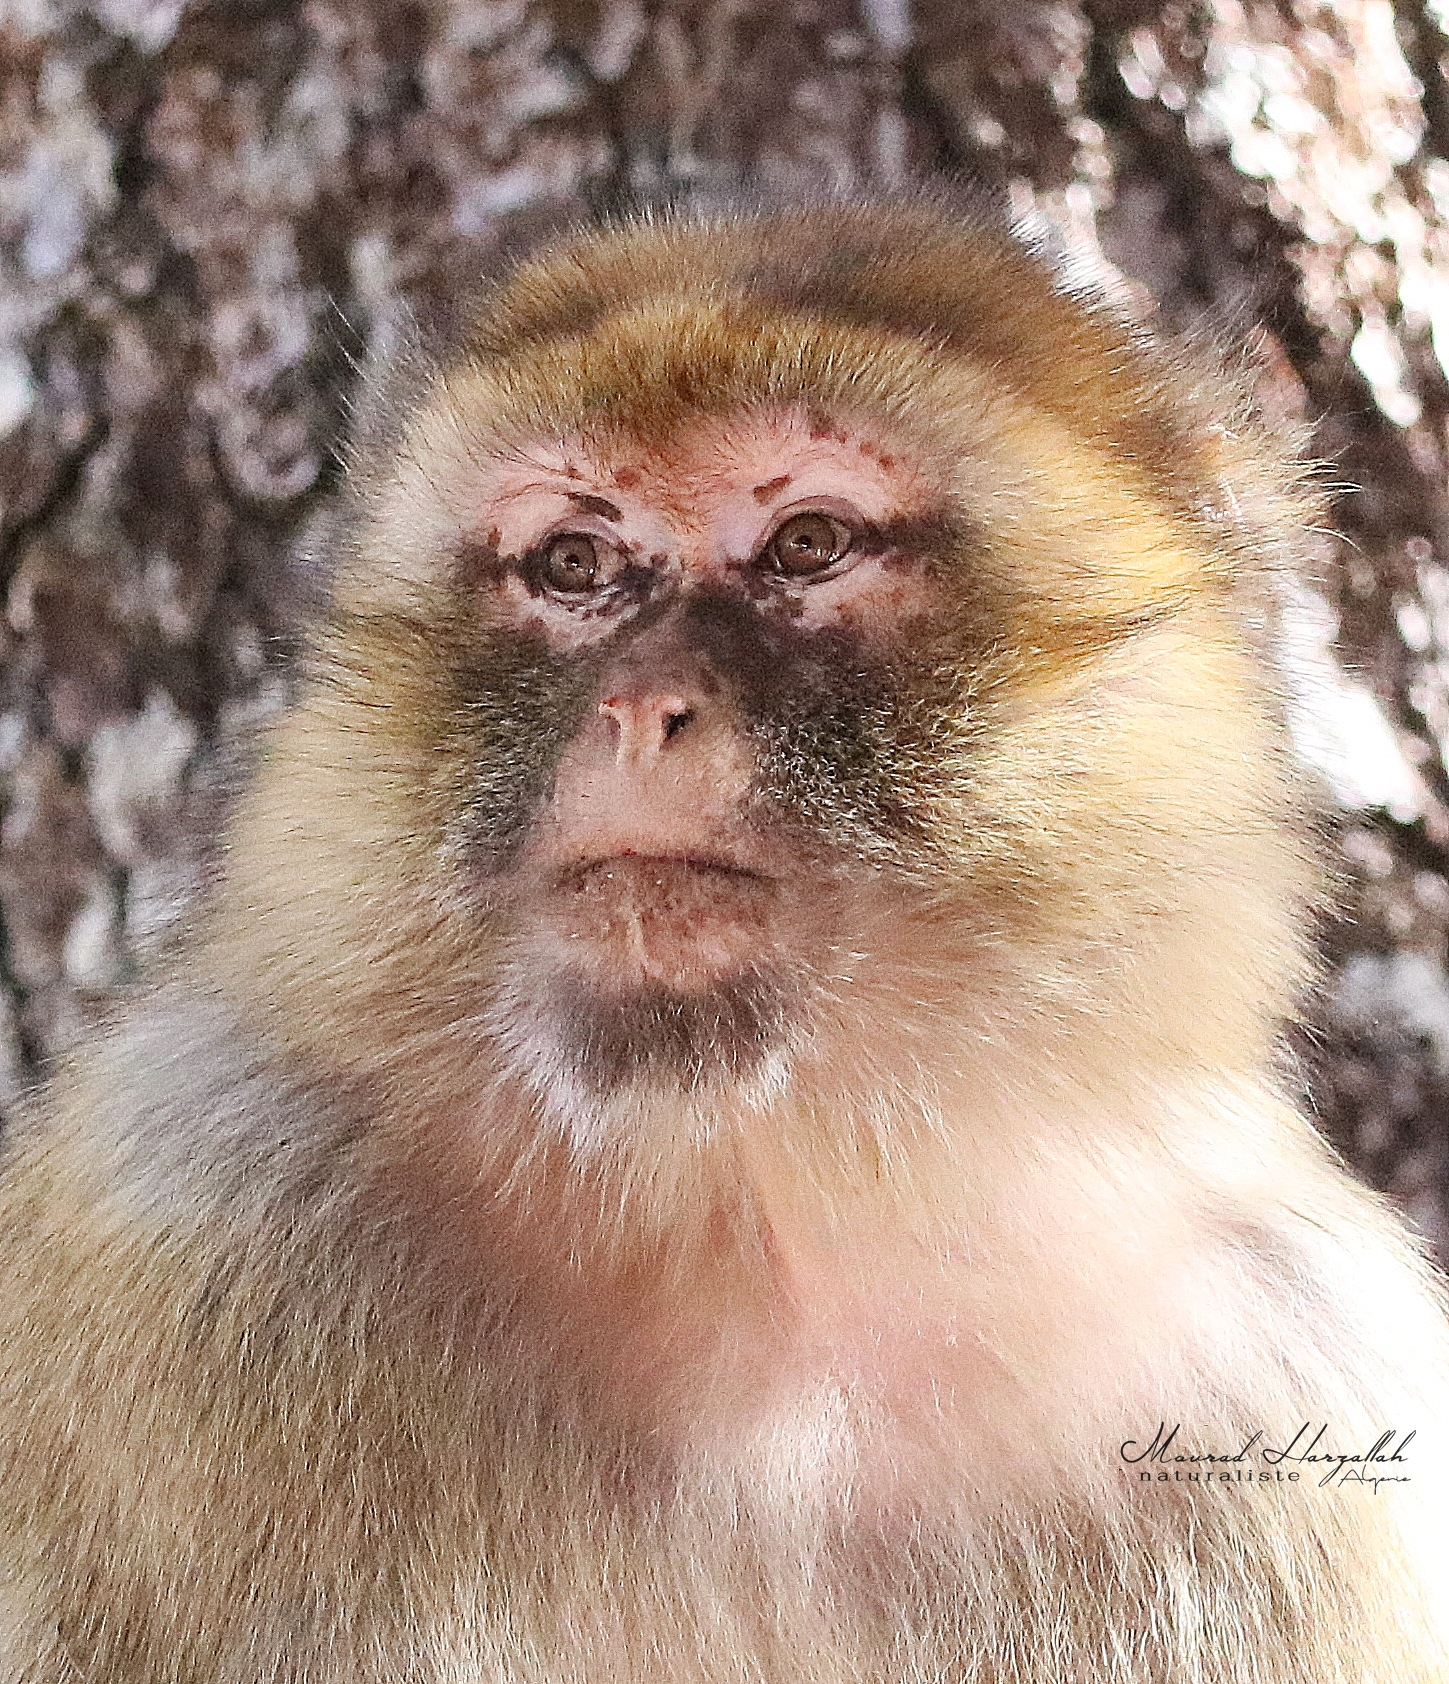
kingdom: Animalia
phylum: Chordata
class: Mammalia
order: Primates
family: Cercopithecidae
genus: Macaca
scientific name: Macaca sylvanus
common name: Barbary macaque
